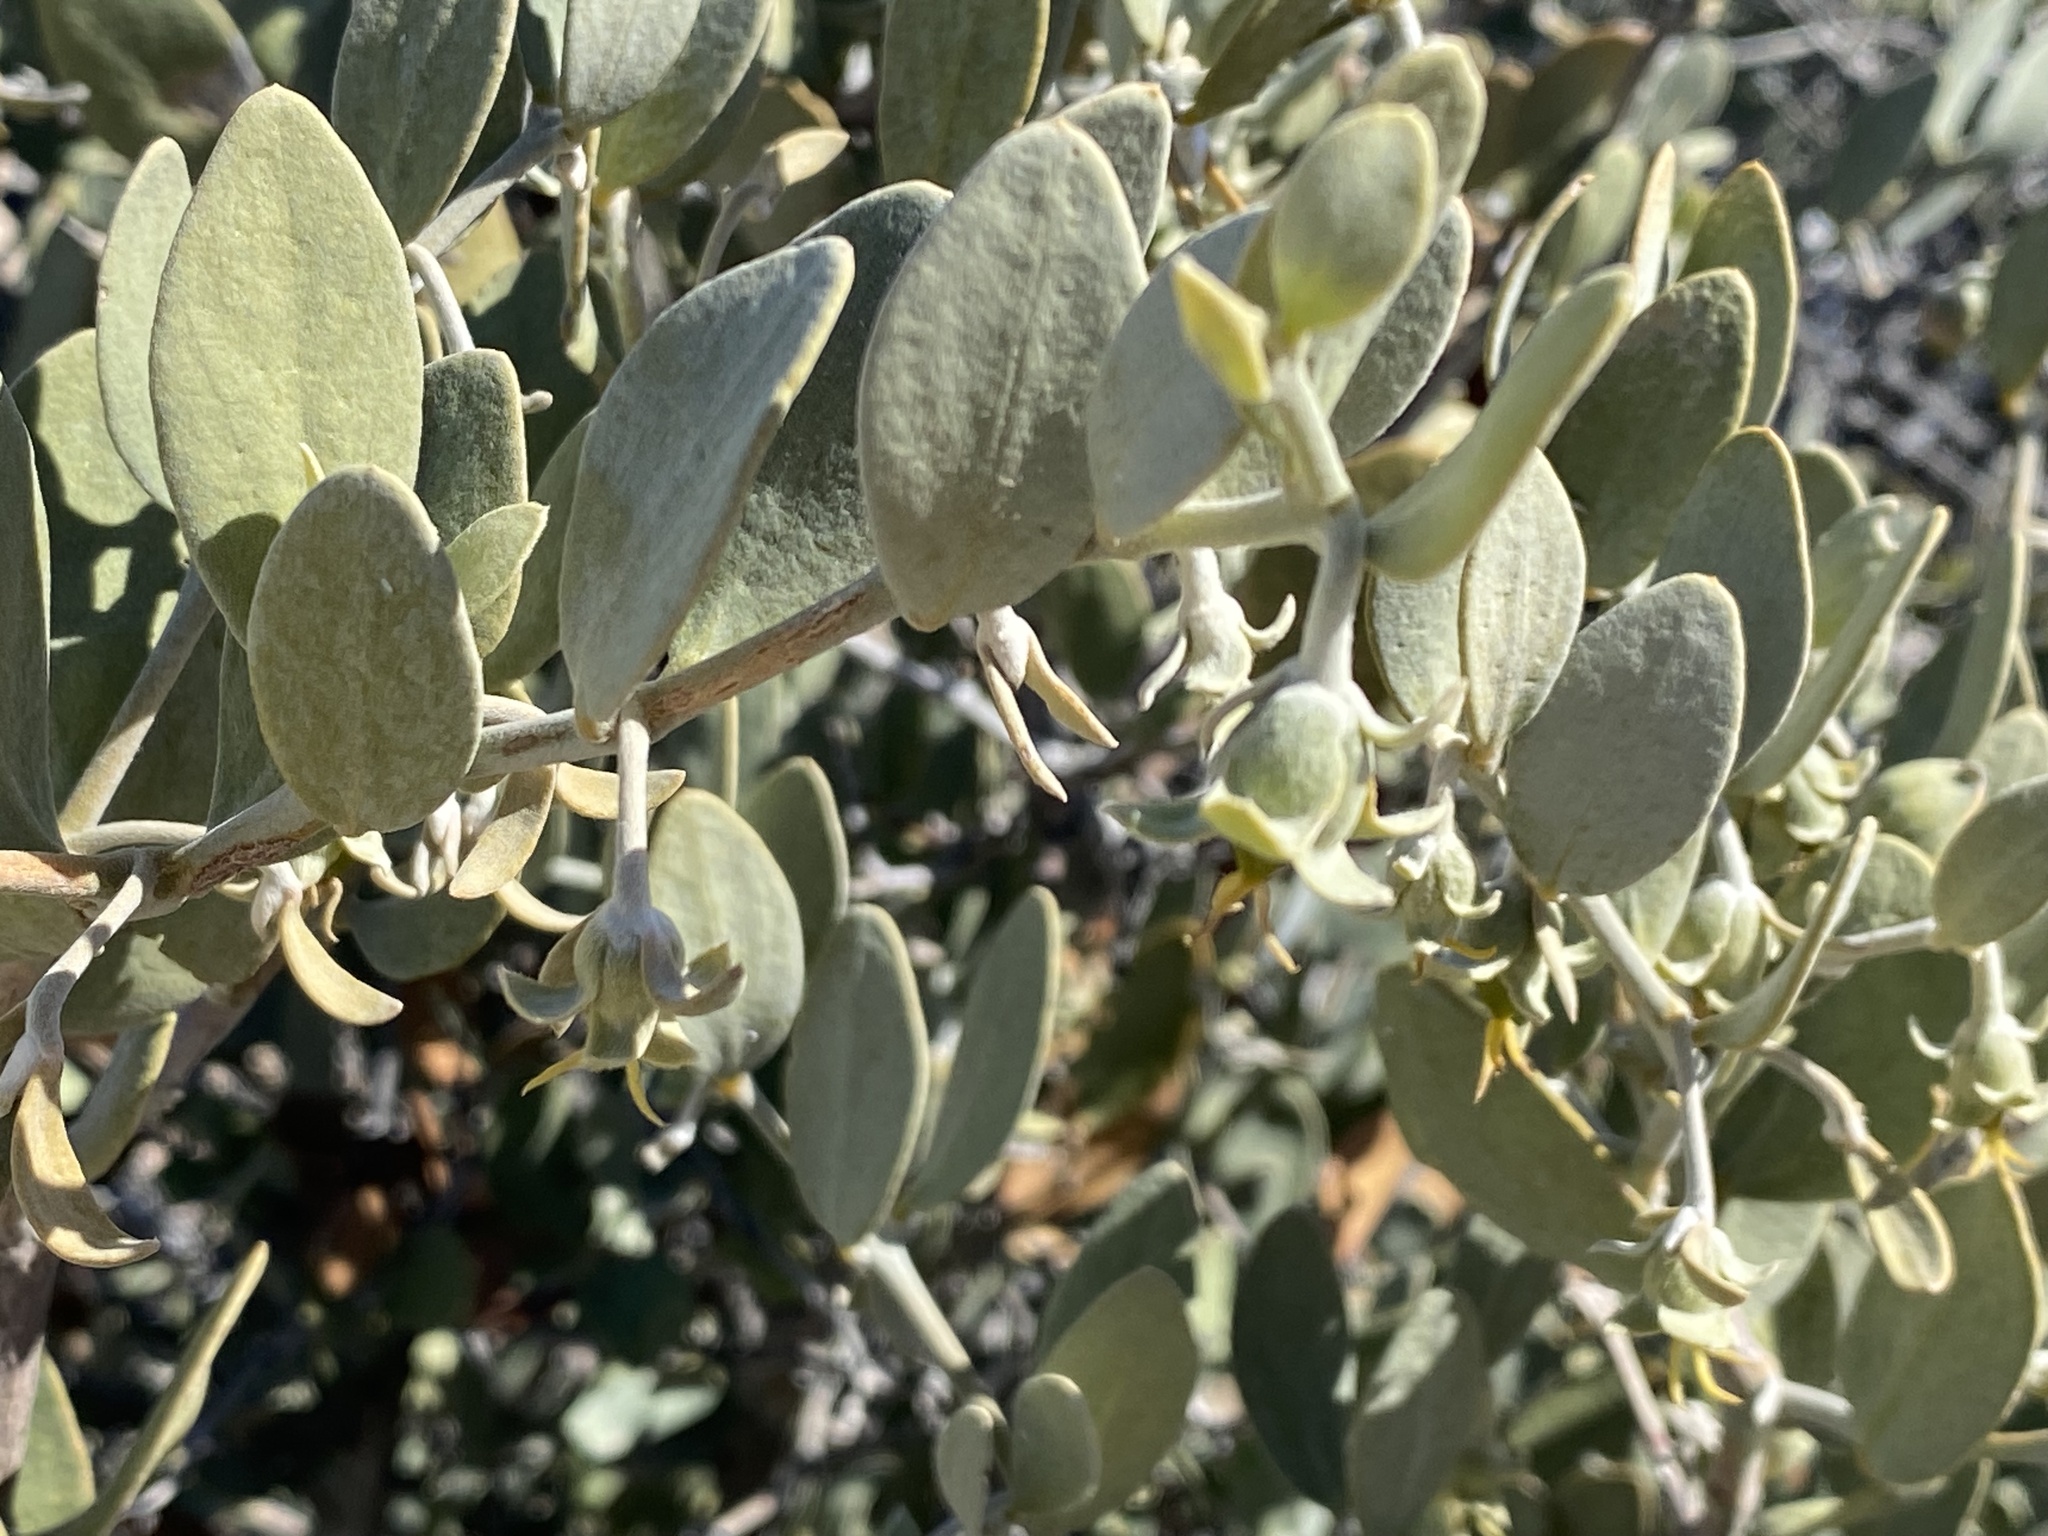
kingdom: Plantae
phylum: Tracheophyta
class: Magnoliopsida
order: Caryophyllales
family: Simmondsiaceae
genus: Simmondsia
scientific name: Simmondsia chinensis
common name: Jojoba
